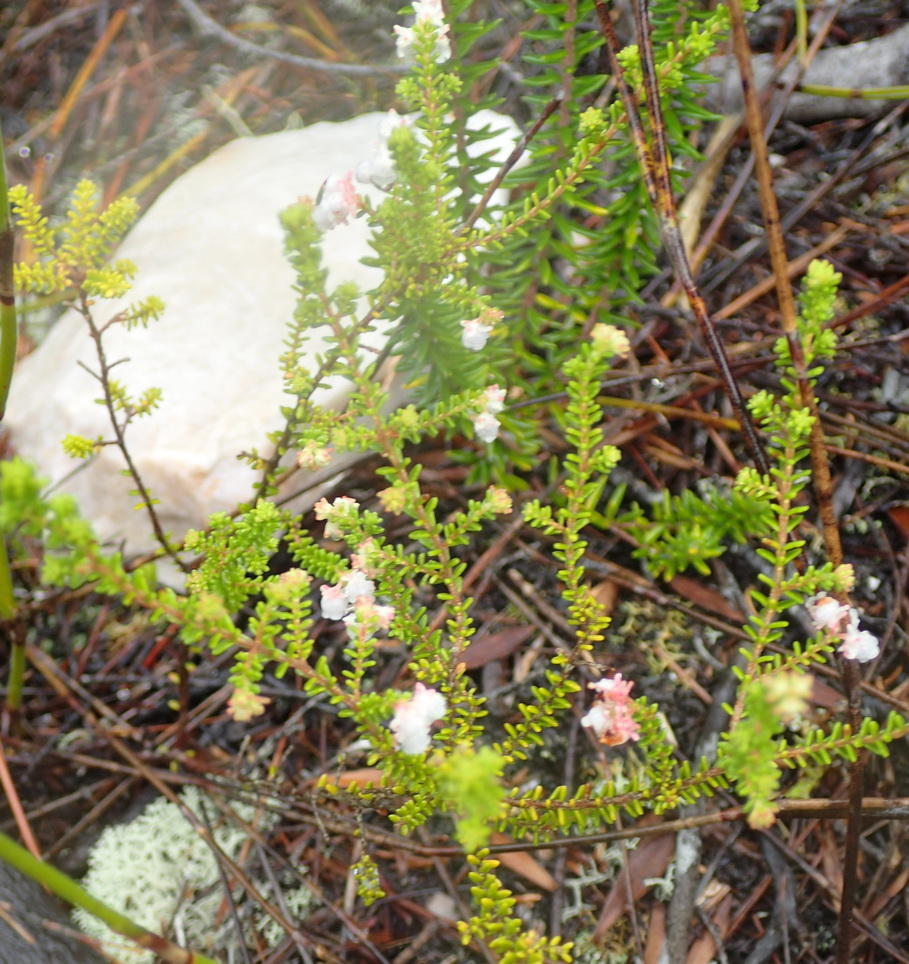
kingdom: Plantae
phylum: Tracheophyta
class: Magnoliopsida
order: Ericales
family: Ericaceae
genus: Erica
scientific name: Erica formosa
